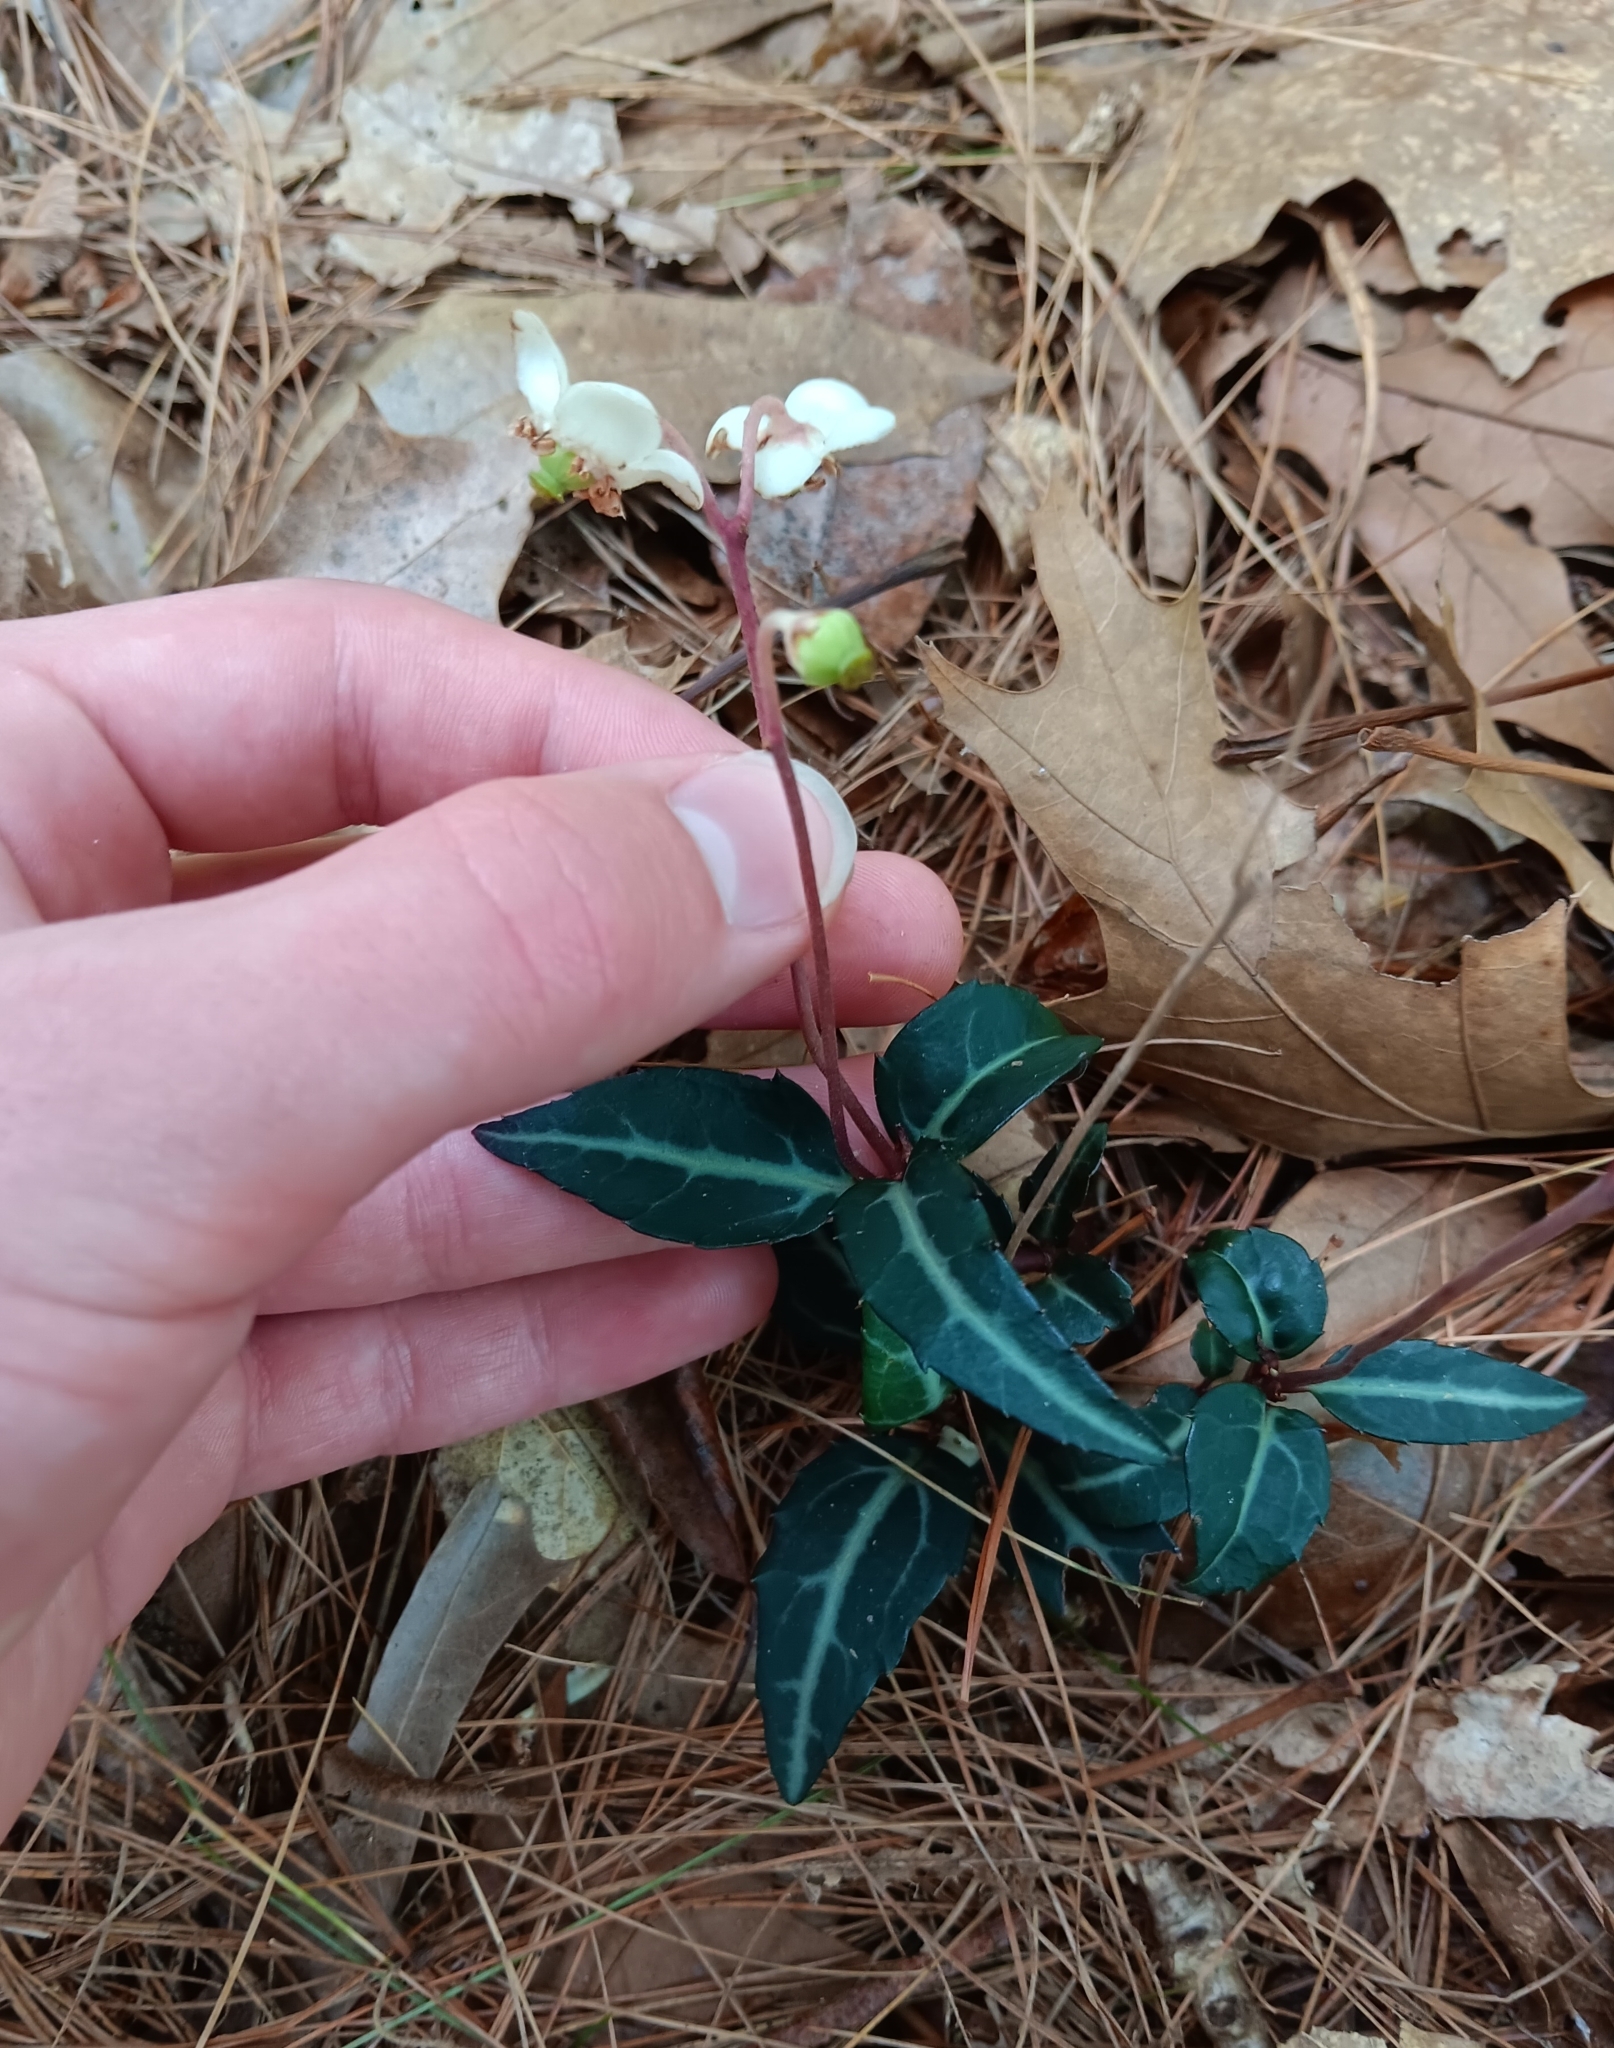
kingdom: Plantae
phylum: Tracheophyta
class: Magnoliopsida
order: Ericales
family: Ericaceae
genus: Chimaphila
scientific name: Chimaphila maculata
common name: Spotted pipsissewa
